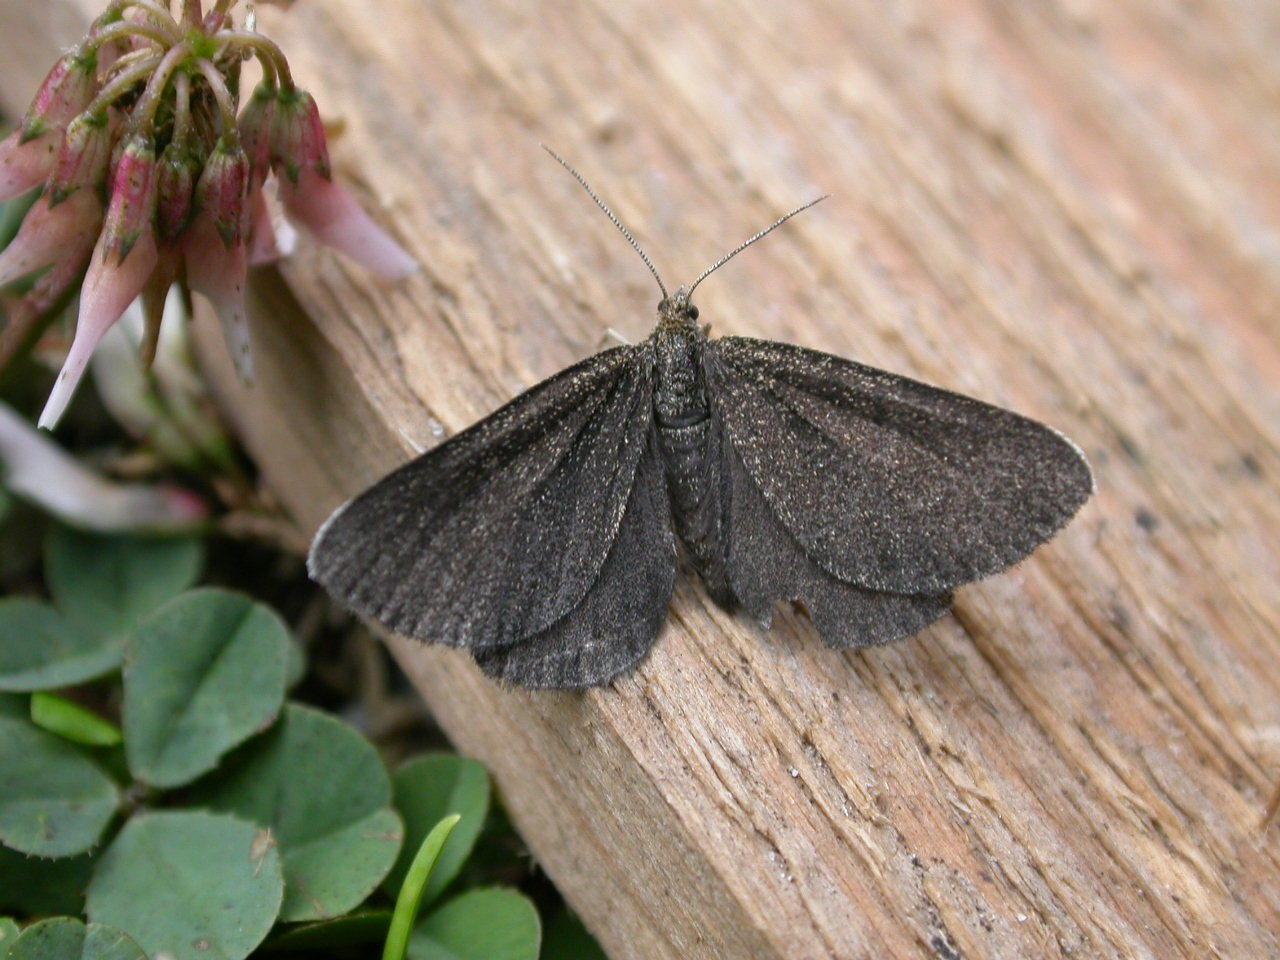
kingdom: Animalia
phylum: Arthropoda
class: Insecta
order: Lepidoptera
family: Geometridae
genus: Odezia
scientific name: Odezia atrata
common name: Chimney sweeper
